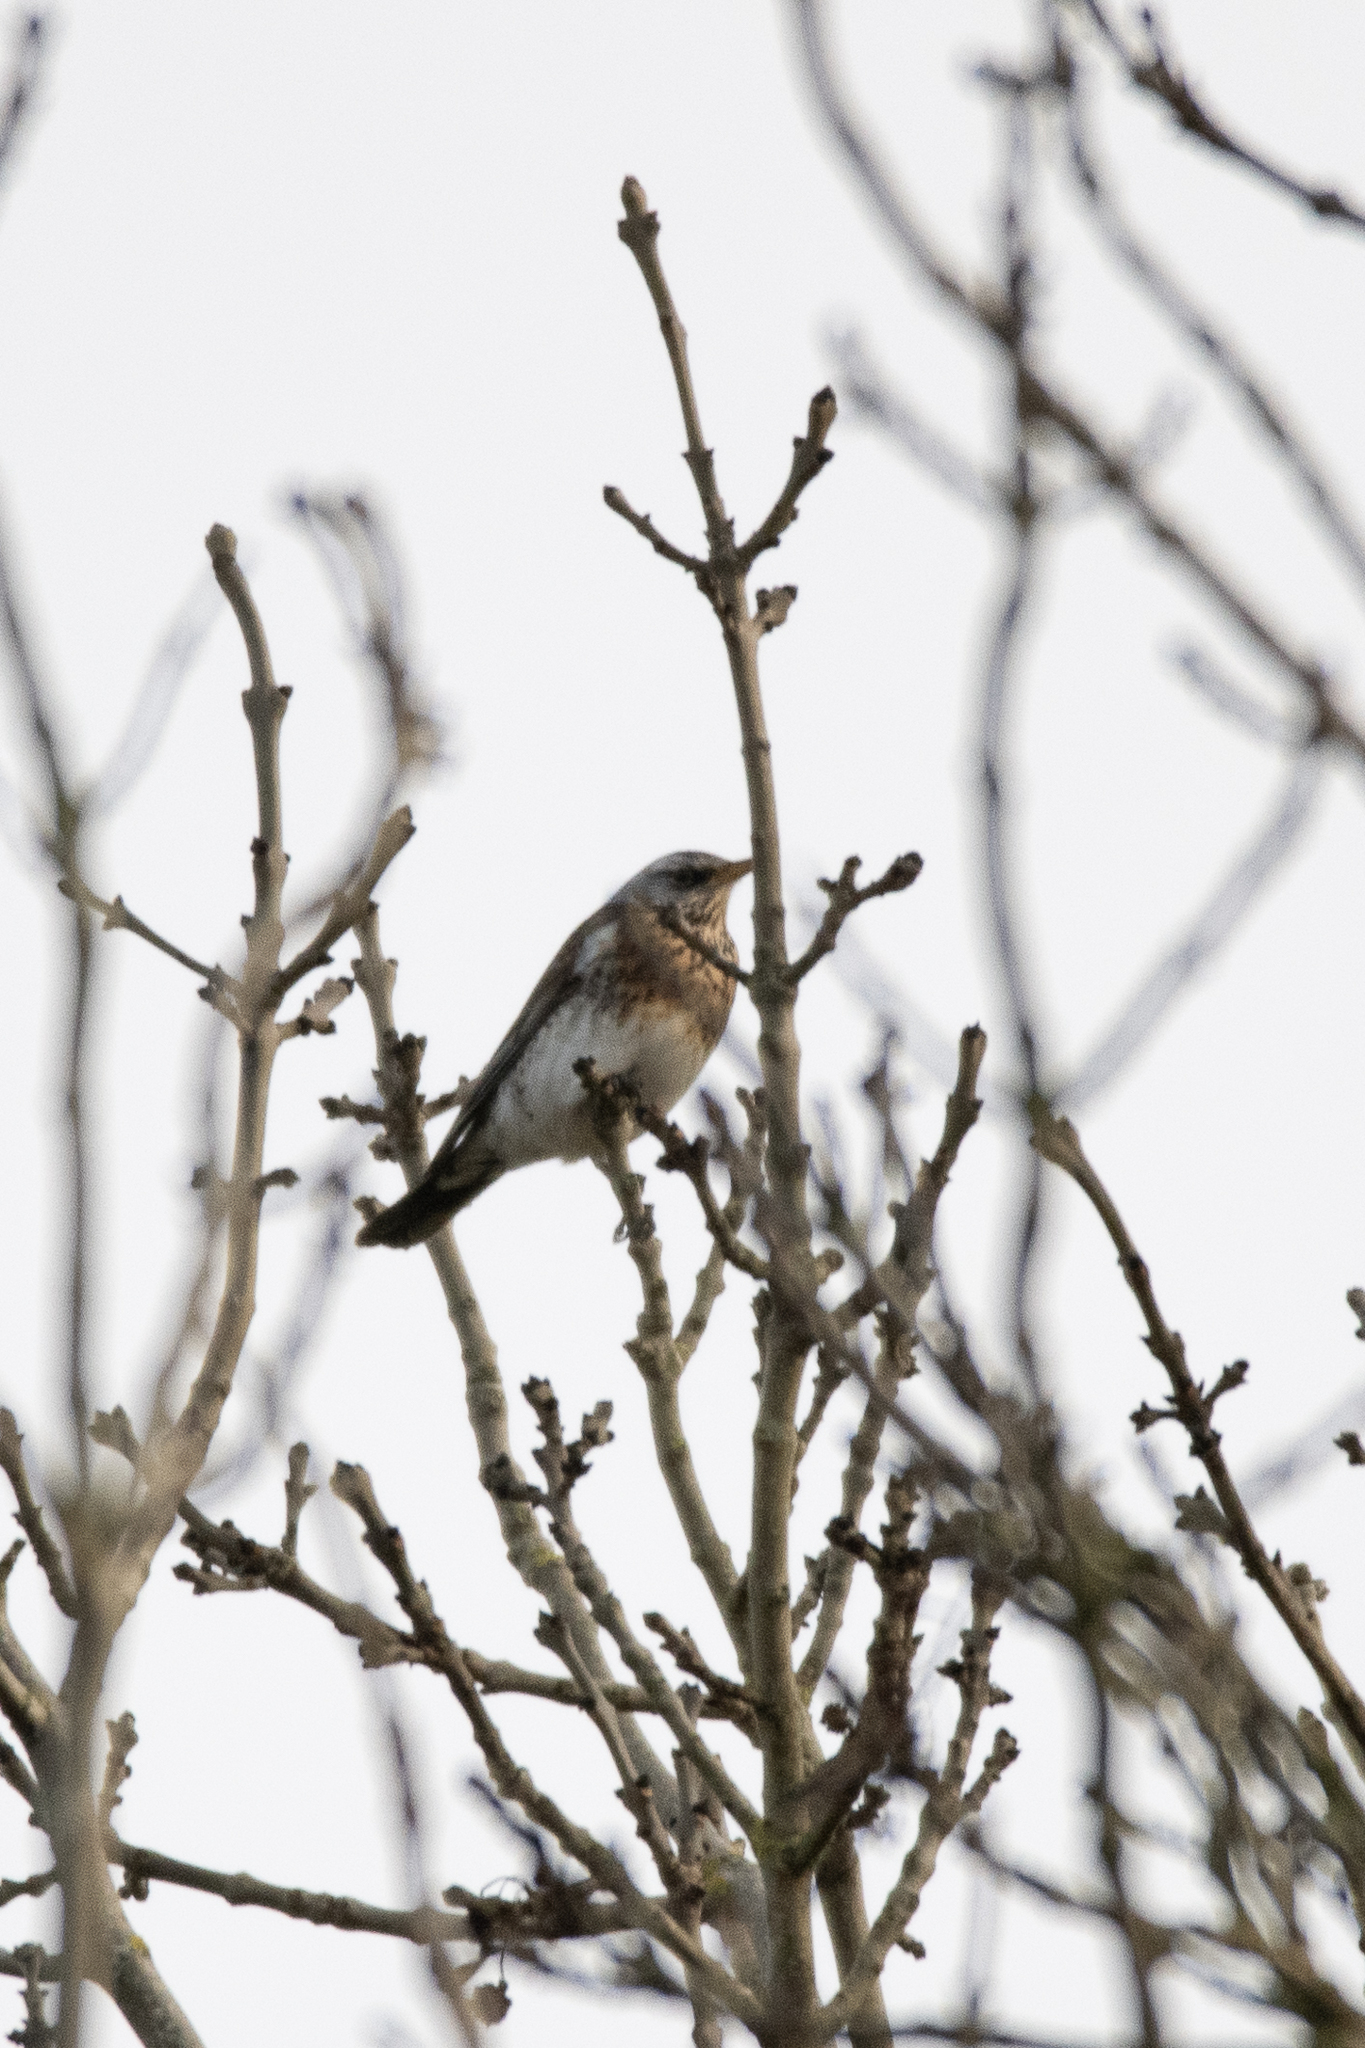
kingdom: Animalia
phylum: Chordata
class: Aves
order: Passeriformes
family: Turdidae
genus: Turdus
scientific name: Turdus pilaris
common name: Fieldfare
